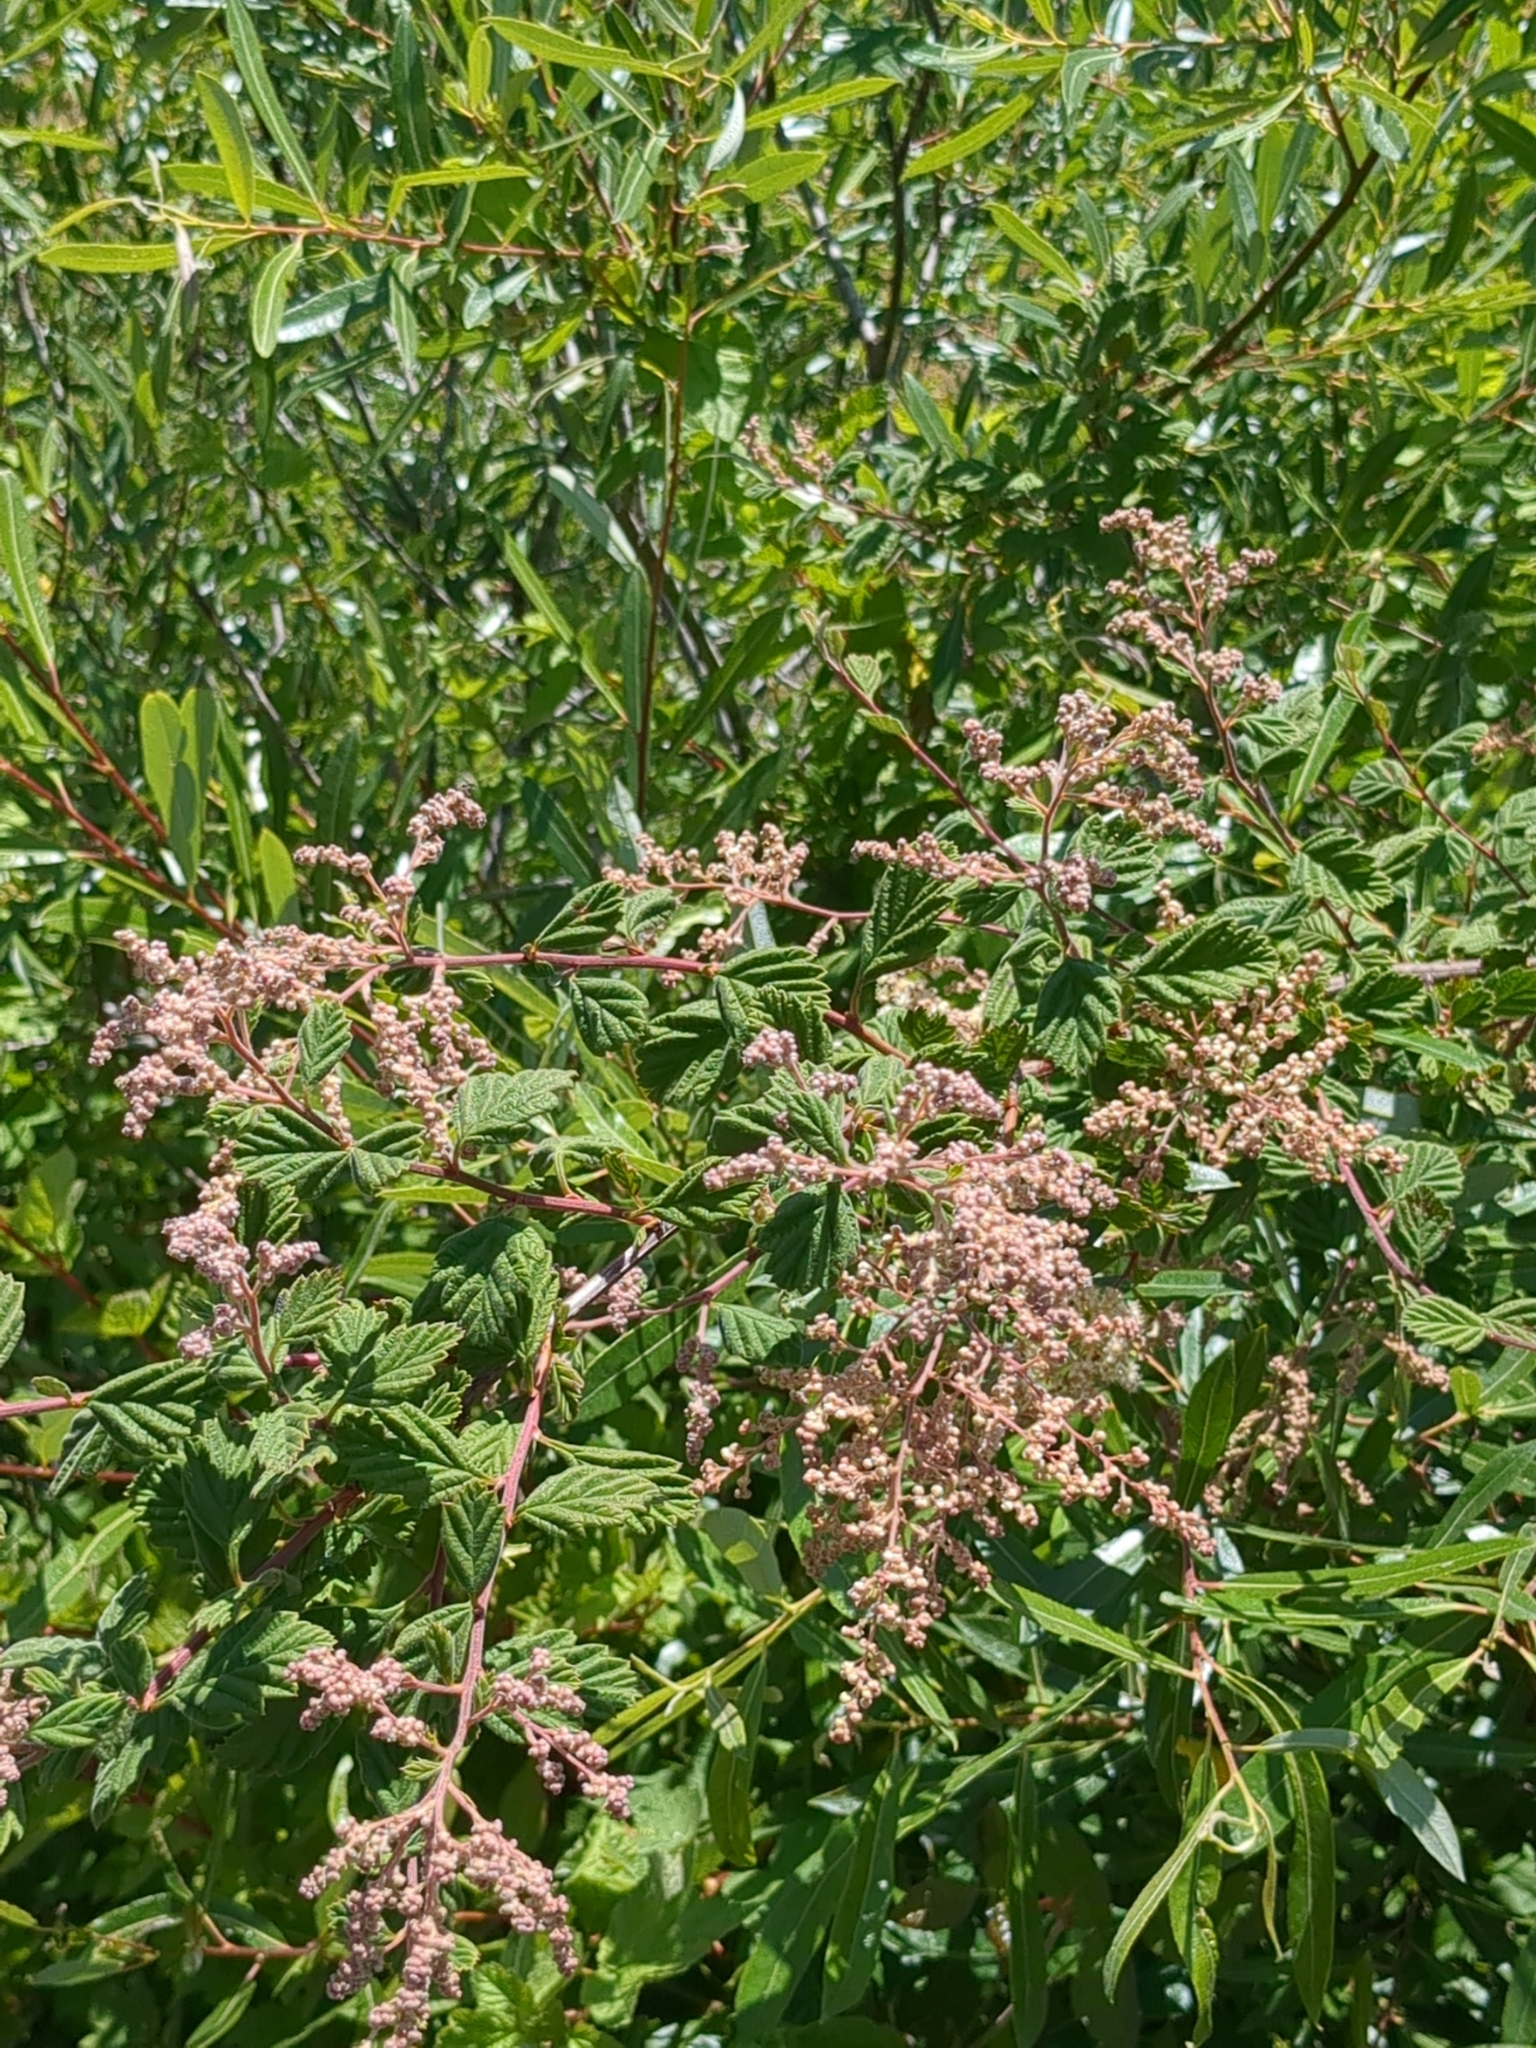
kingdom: Plantae
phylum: Tracheophyta
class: Magnoliopsida
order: Rosales
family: Rosaceae
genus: Holodiscus
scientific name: Holodiscus discolor
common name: Oceanspray
